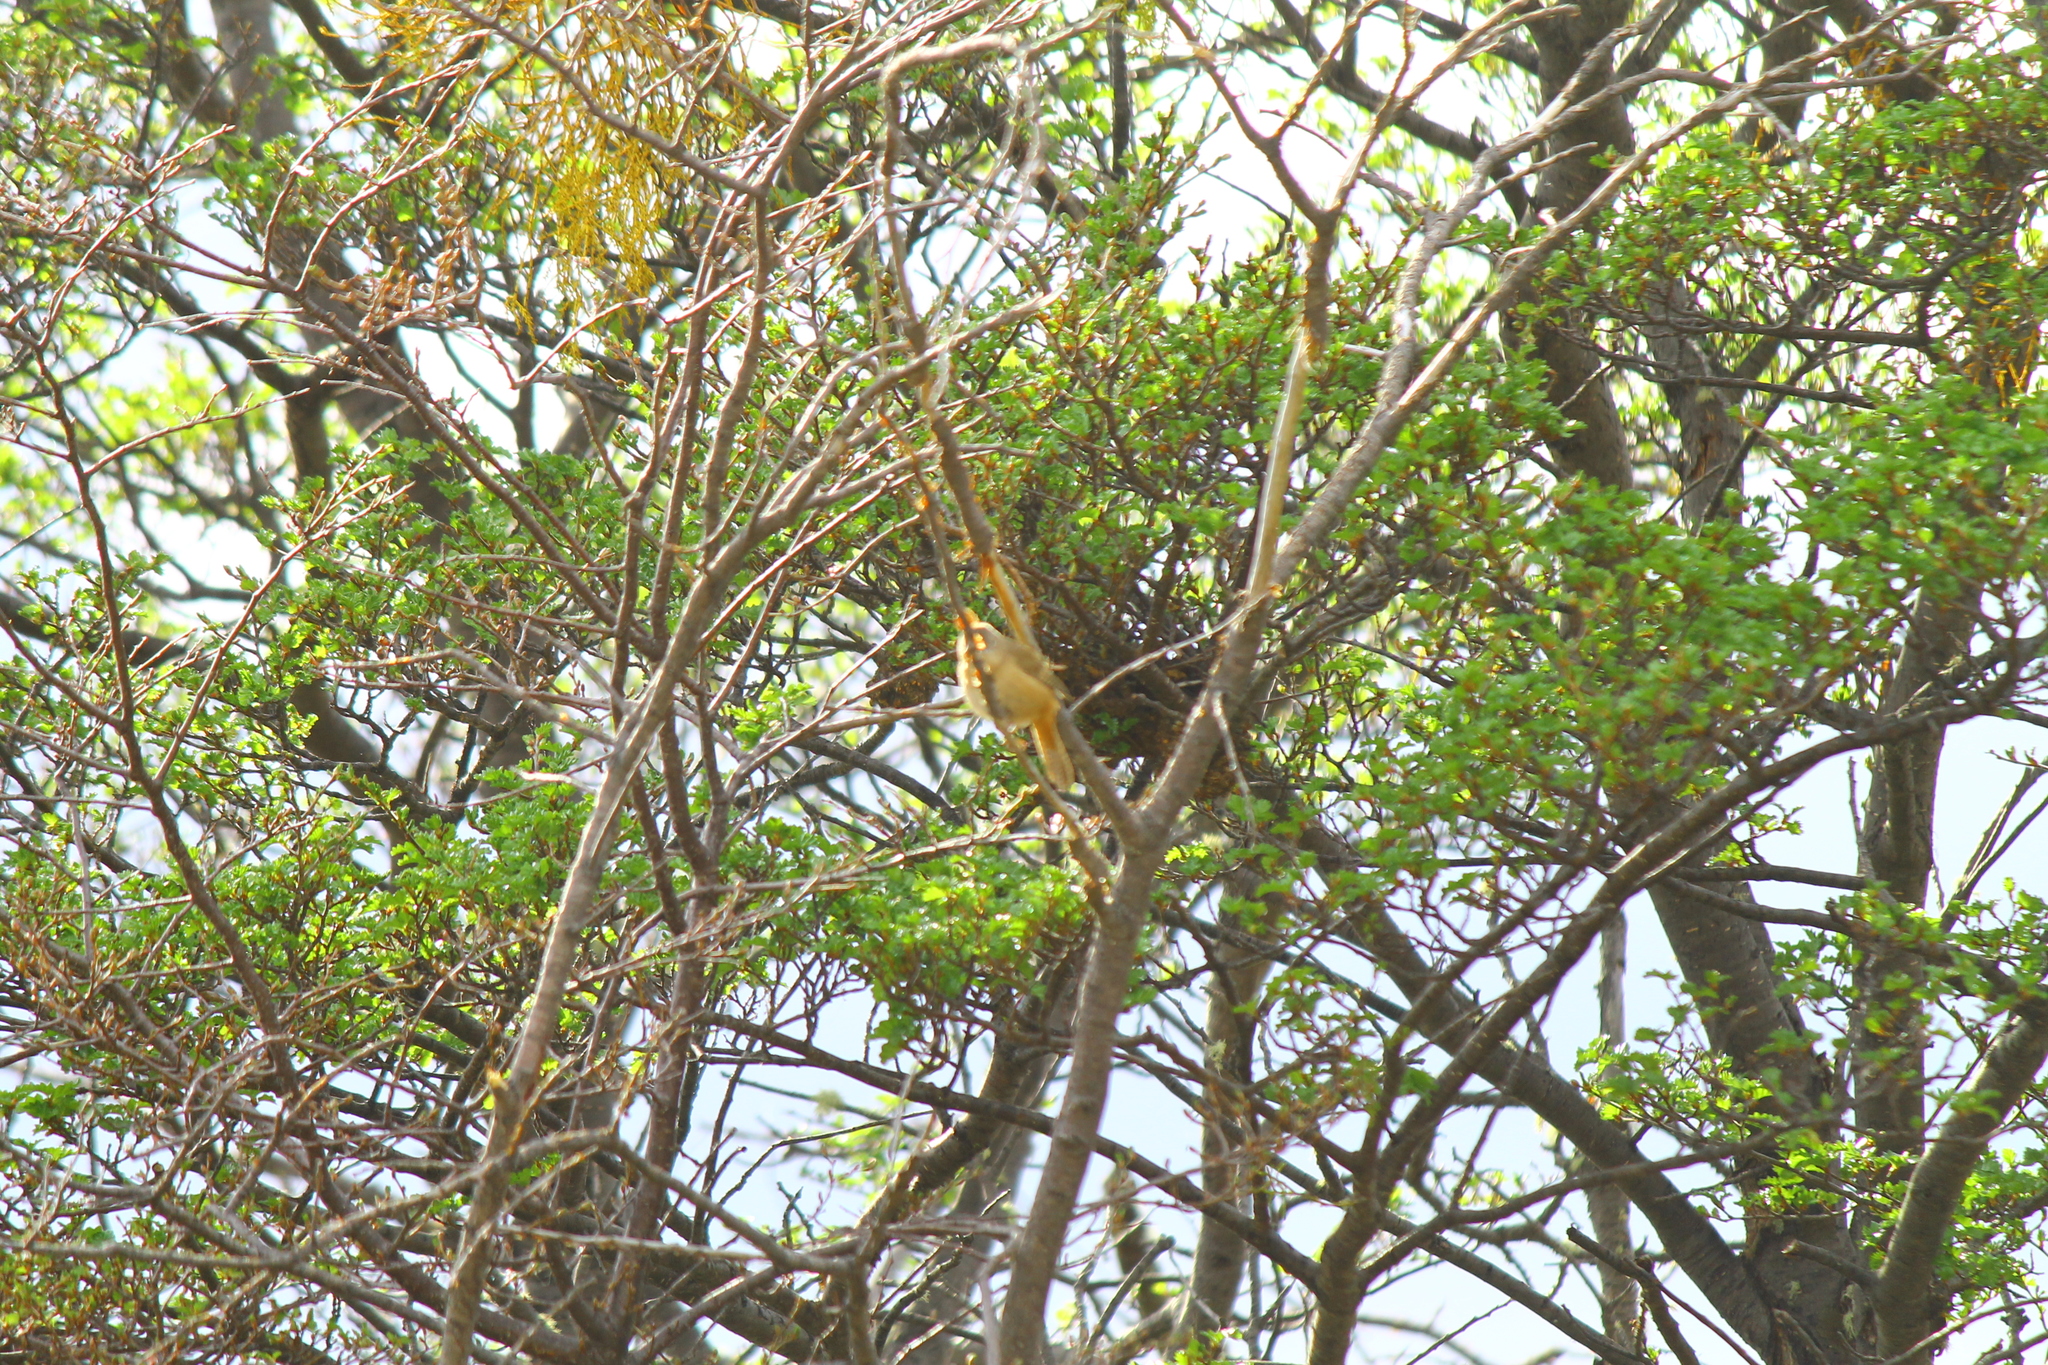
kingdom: Animalia
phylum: Chordata
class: Aves
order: Passeriformes
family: Troglodytidae
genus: Troglodytes
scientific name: Troglodytes aedon
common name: House wren
